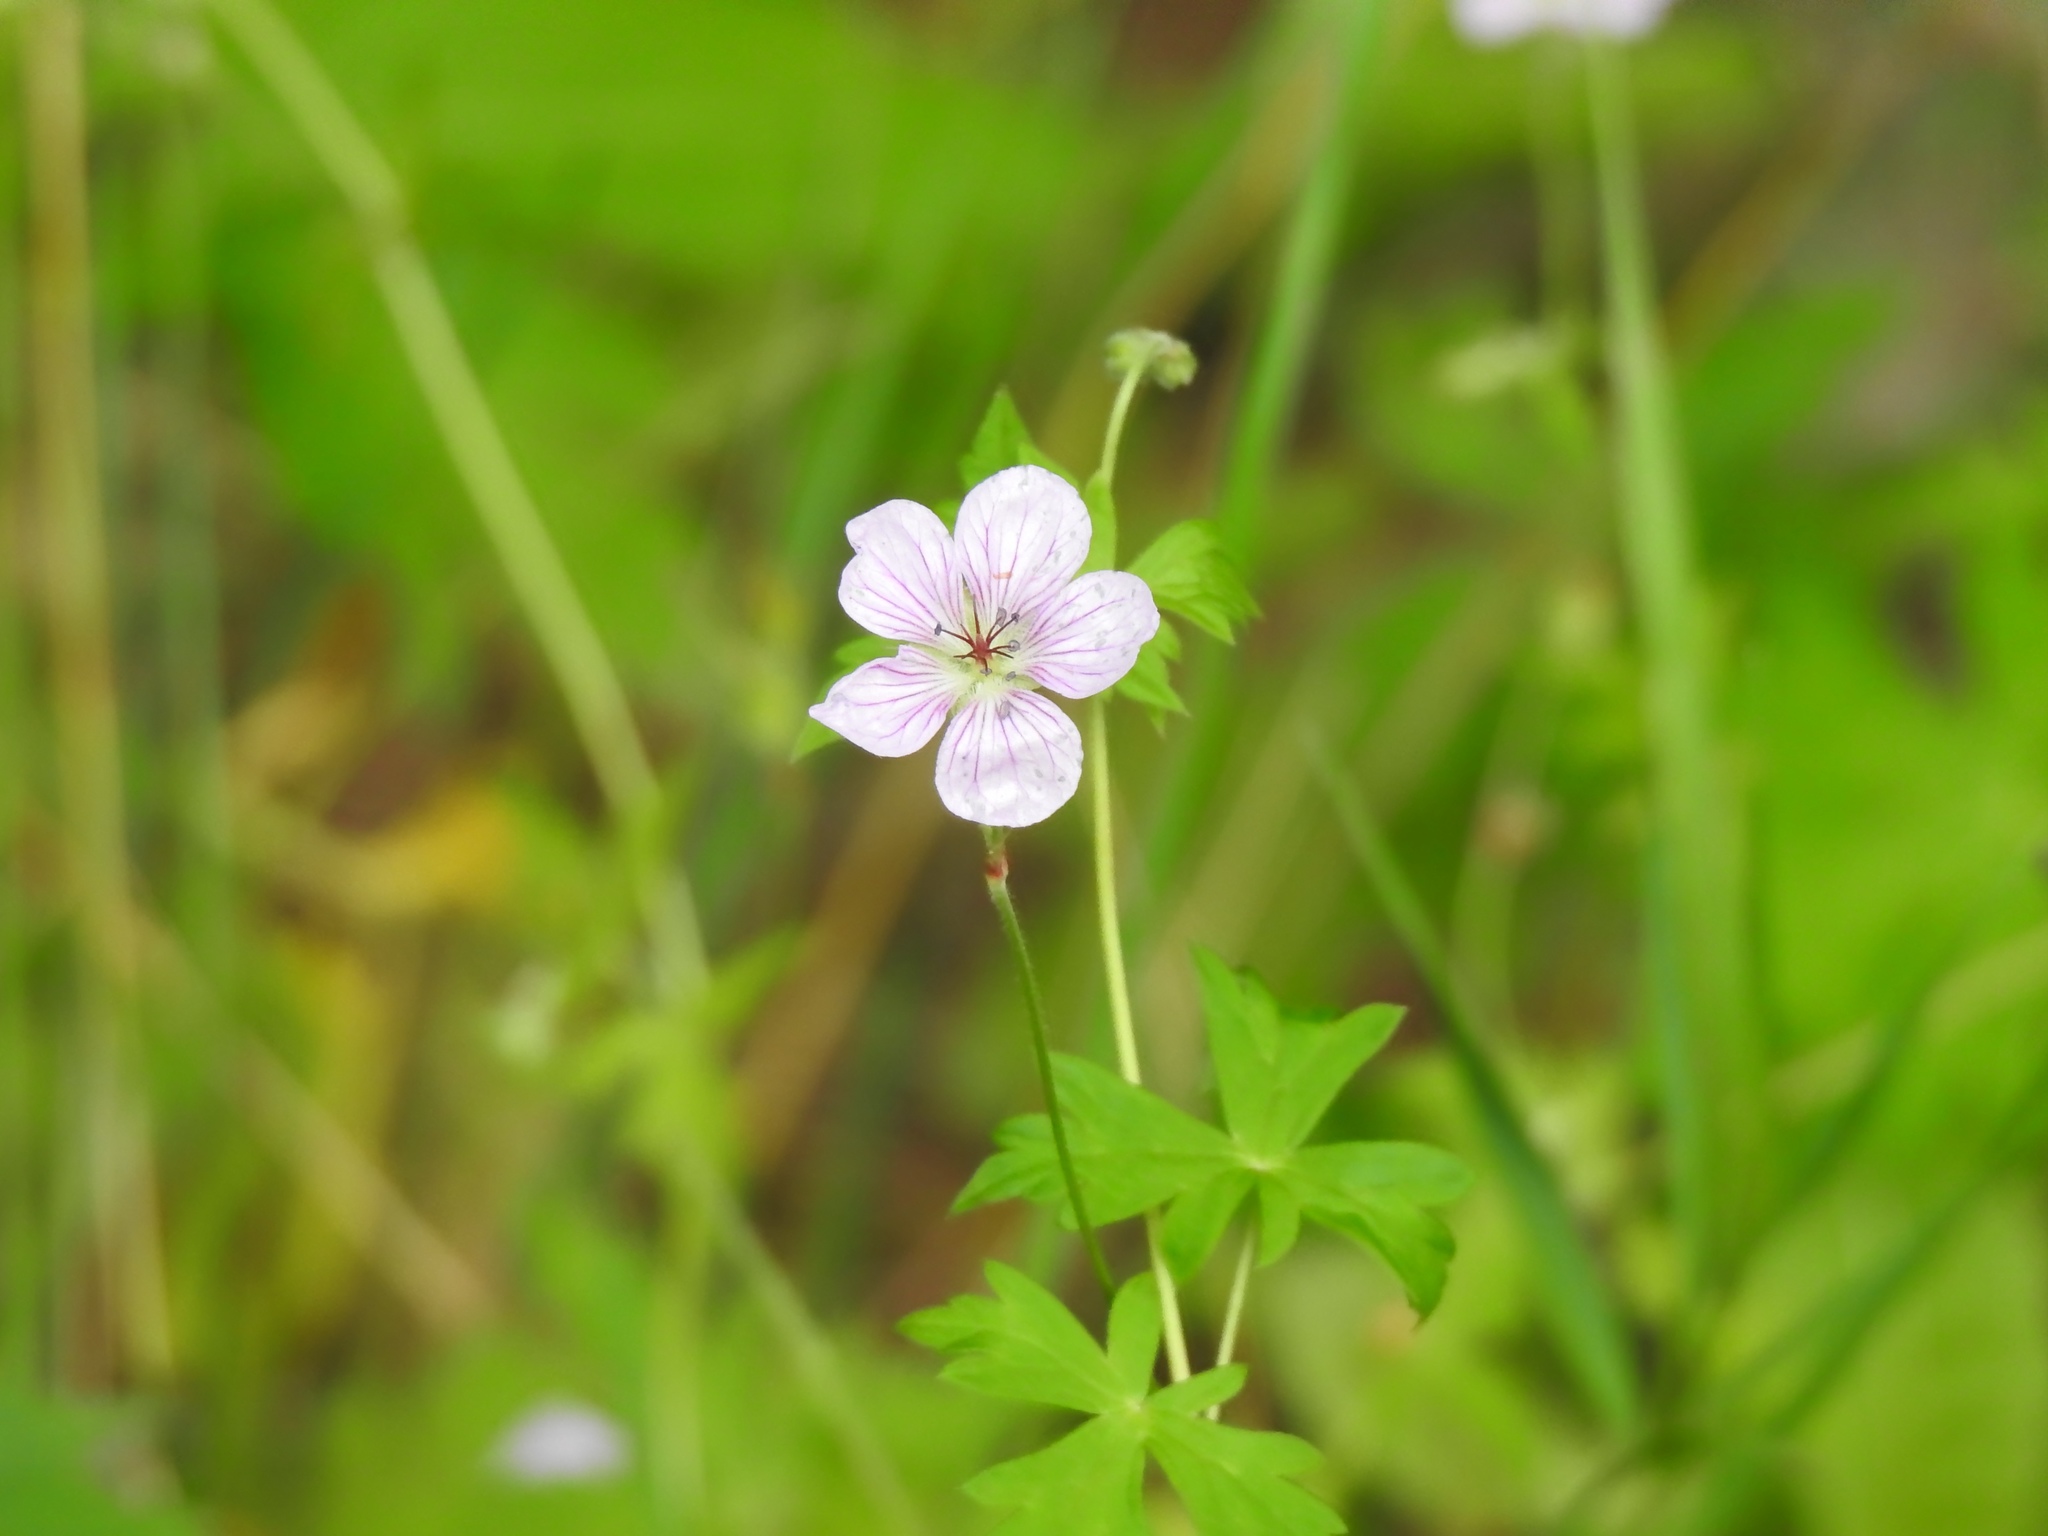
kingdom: Plantae
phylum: Tracheophyta
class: Magnoliopsida
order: Geraniales
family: Geraniaceae
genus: Geranium
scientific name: Geranium richardsonii
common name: Richardson's crane's-bill
